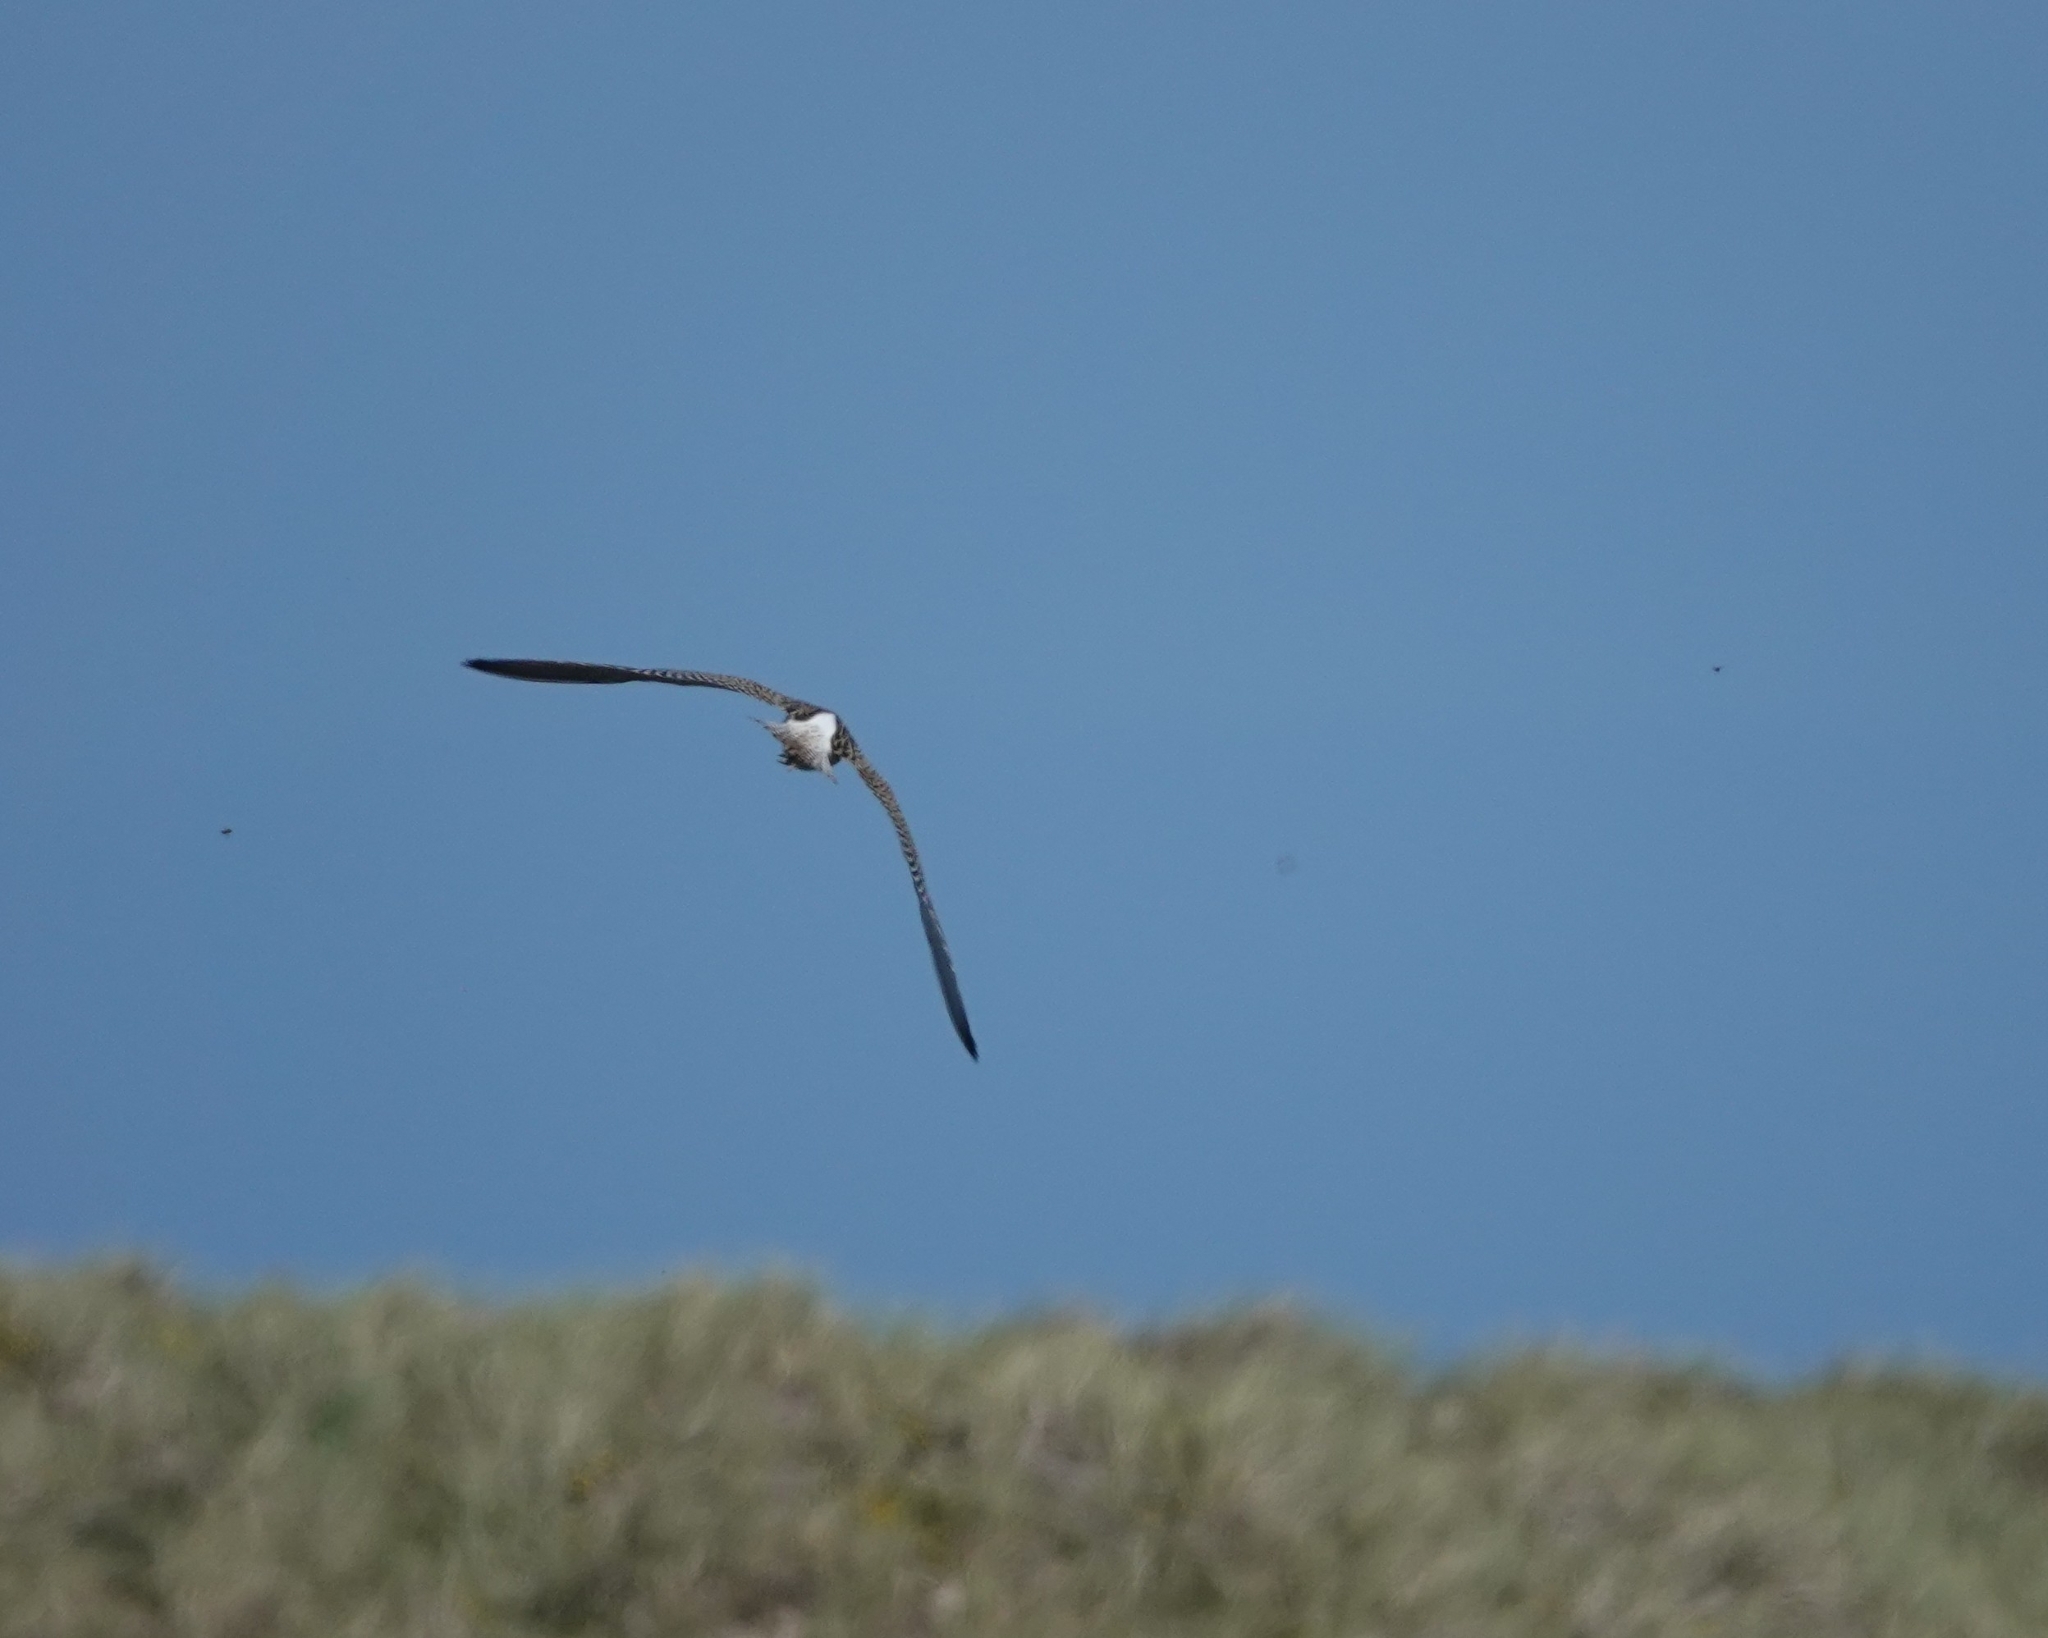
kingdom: Animalia
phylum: Chordata
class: Aves
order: Charadriiformes
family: Scolopacidae
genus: Numenius
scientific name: Numenius arquata
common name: Eurasian curlew
